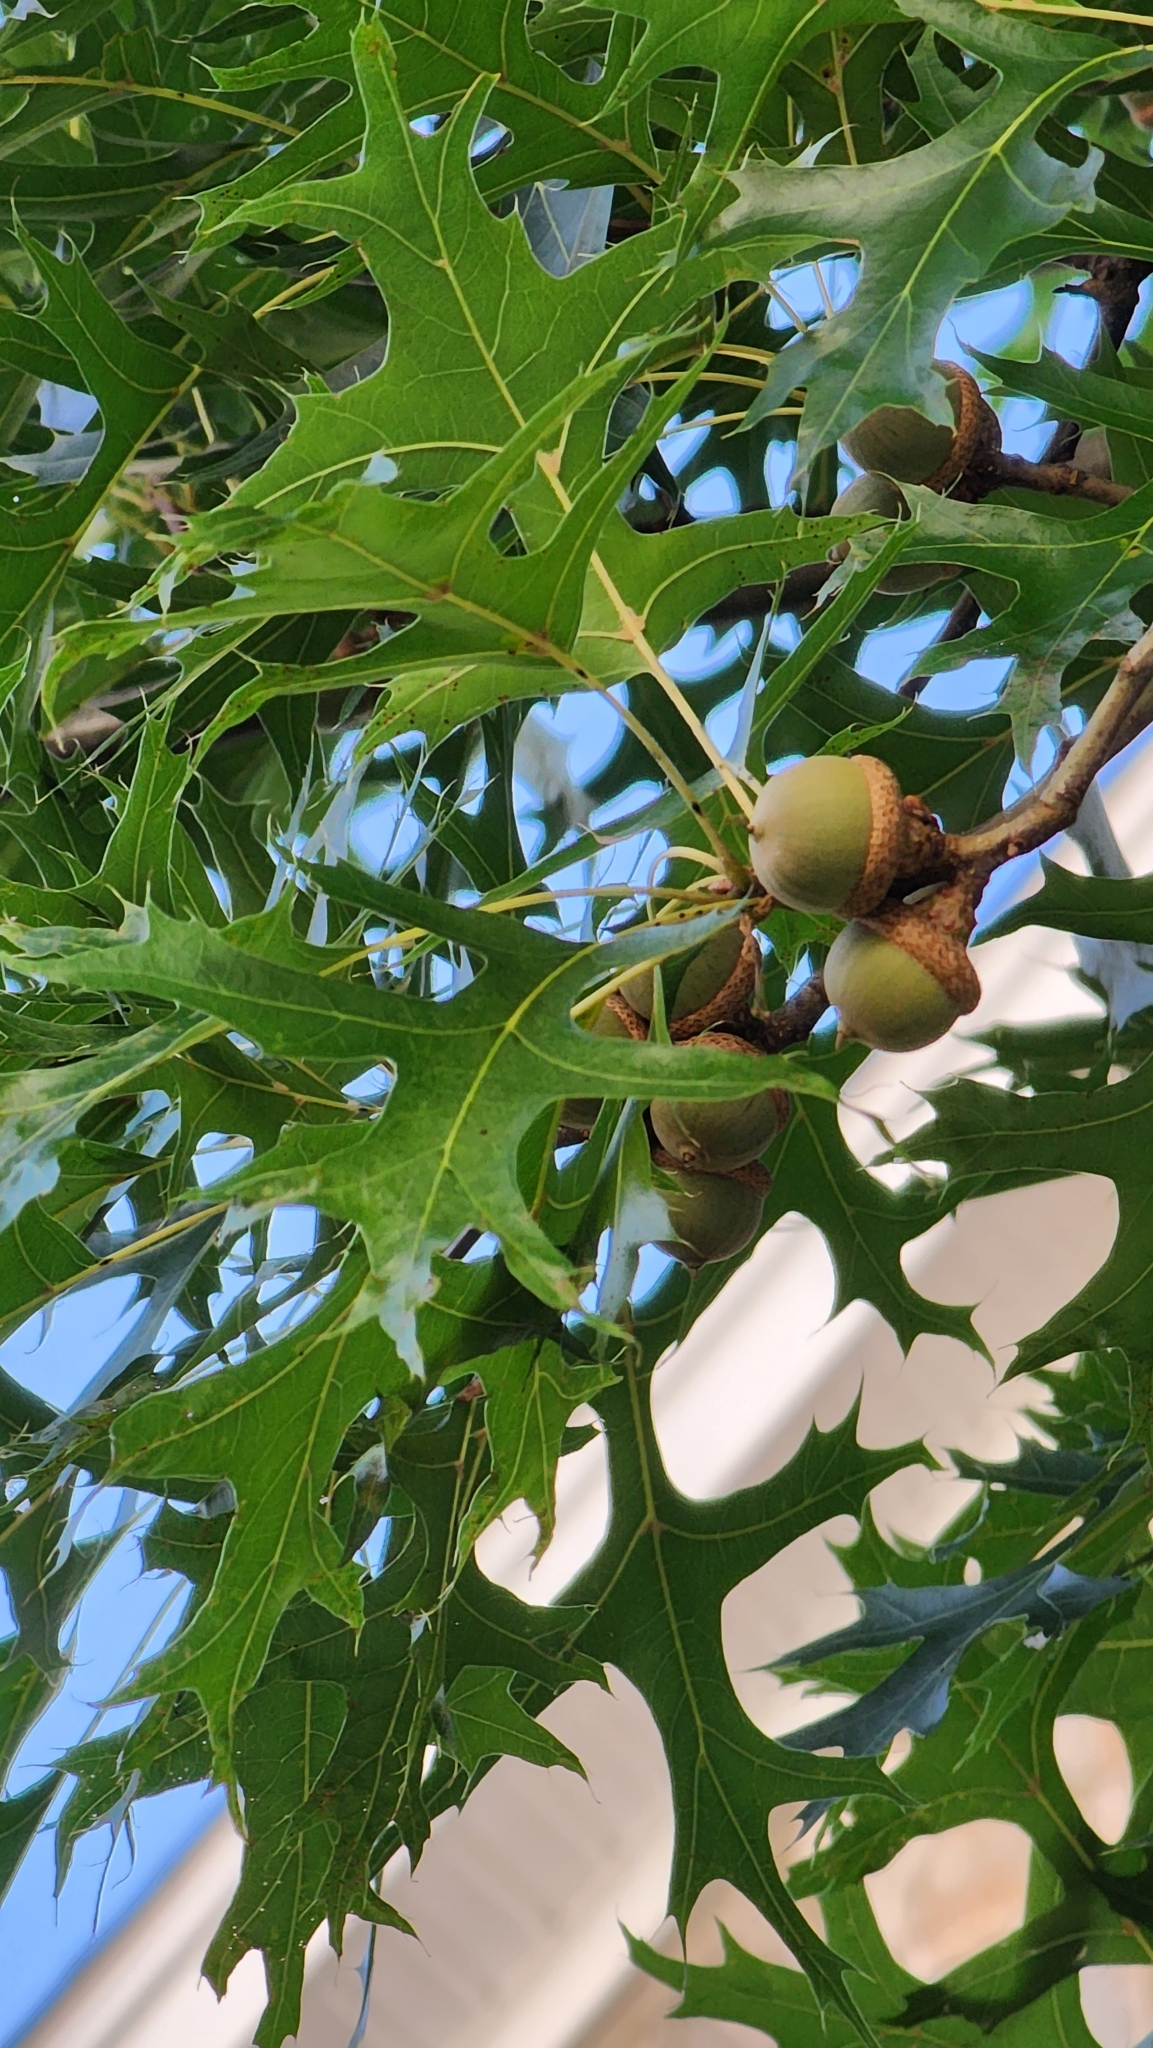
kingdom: Plantae
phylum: Tracheophyta
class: Magnoliopsida
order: Fagales
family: Fagaceae
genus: Quercus
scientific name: Quercus palustris
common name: Pin oak
